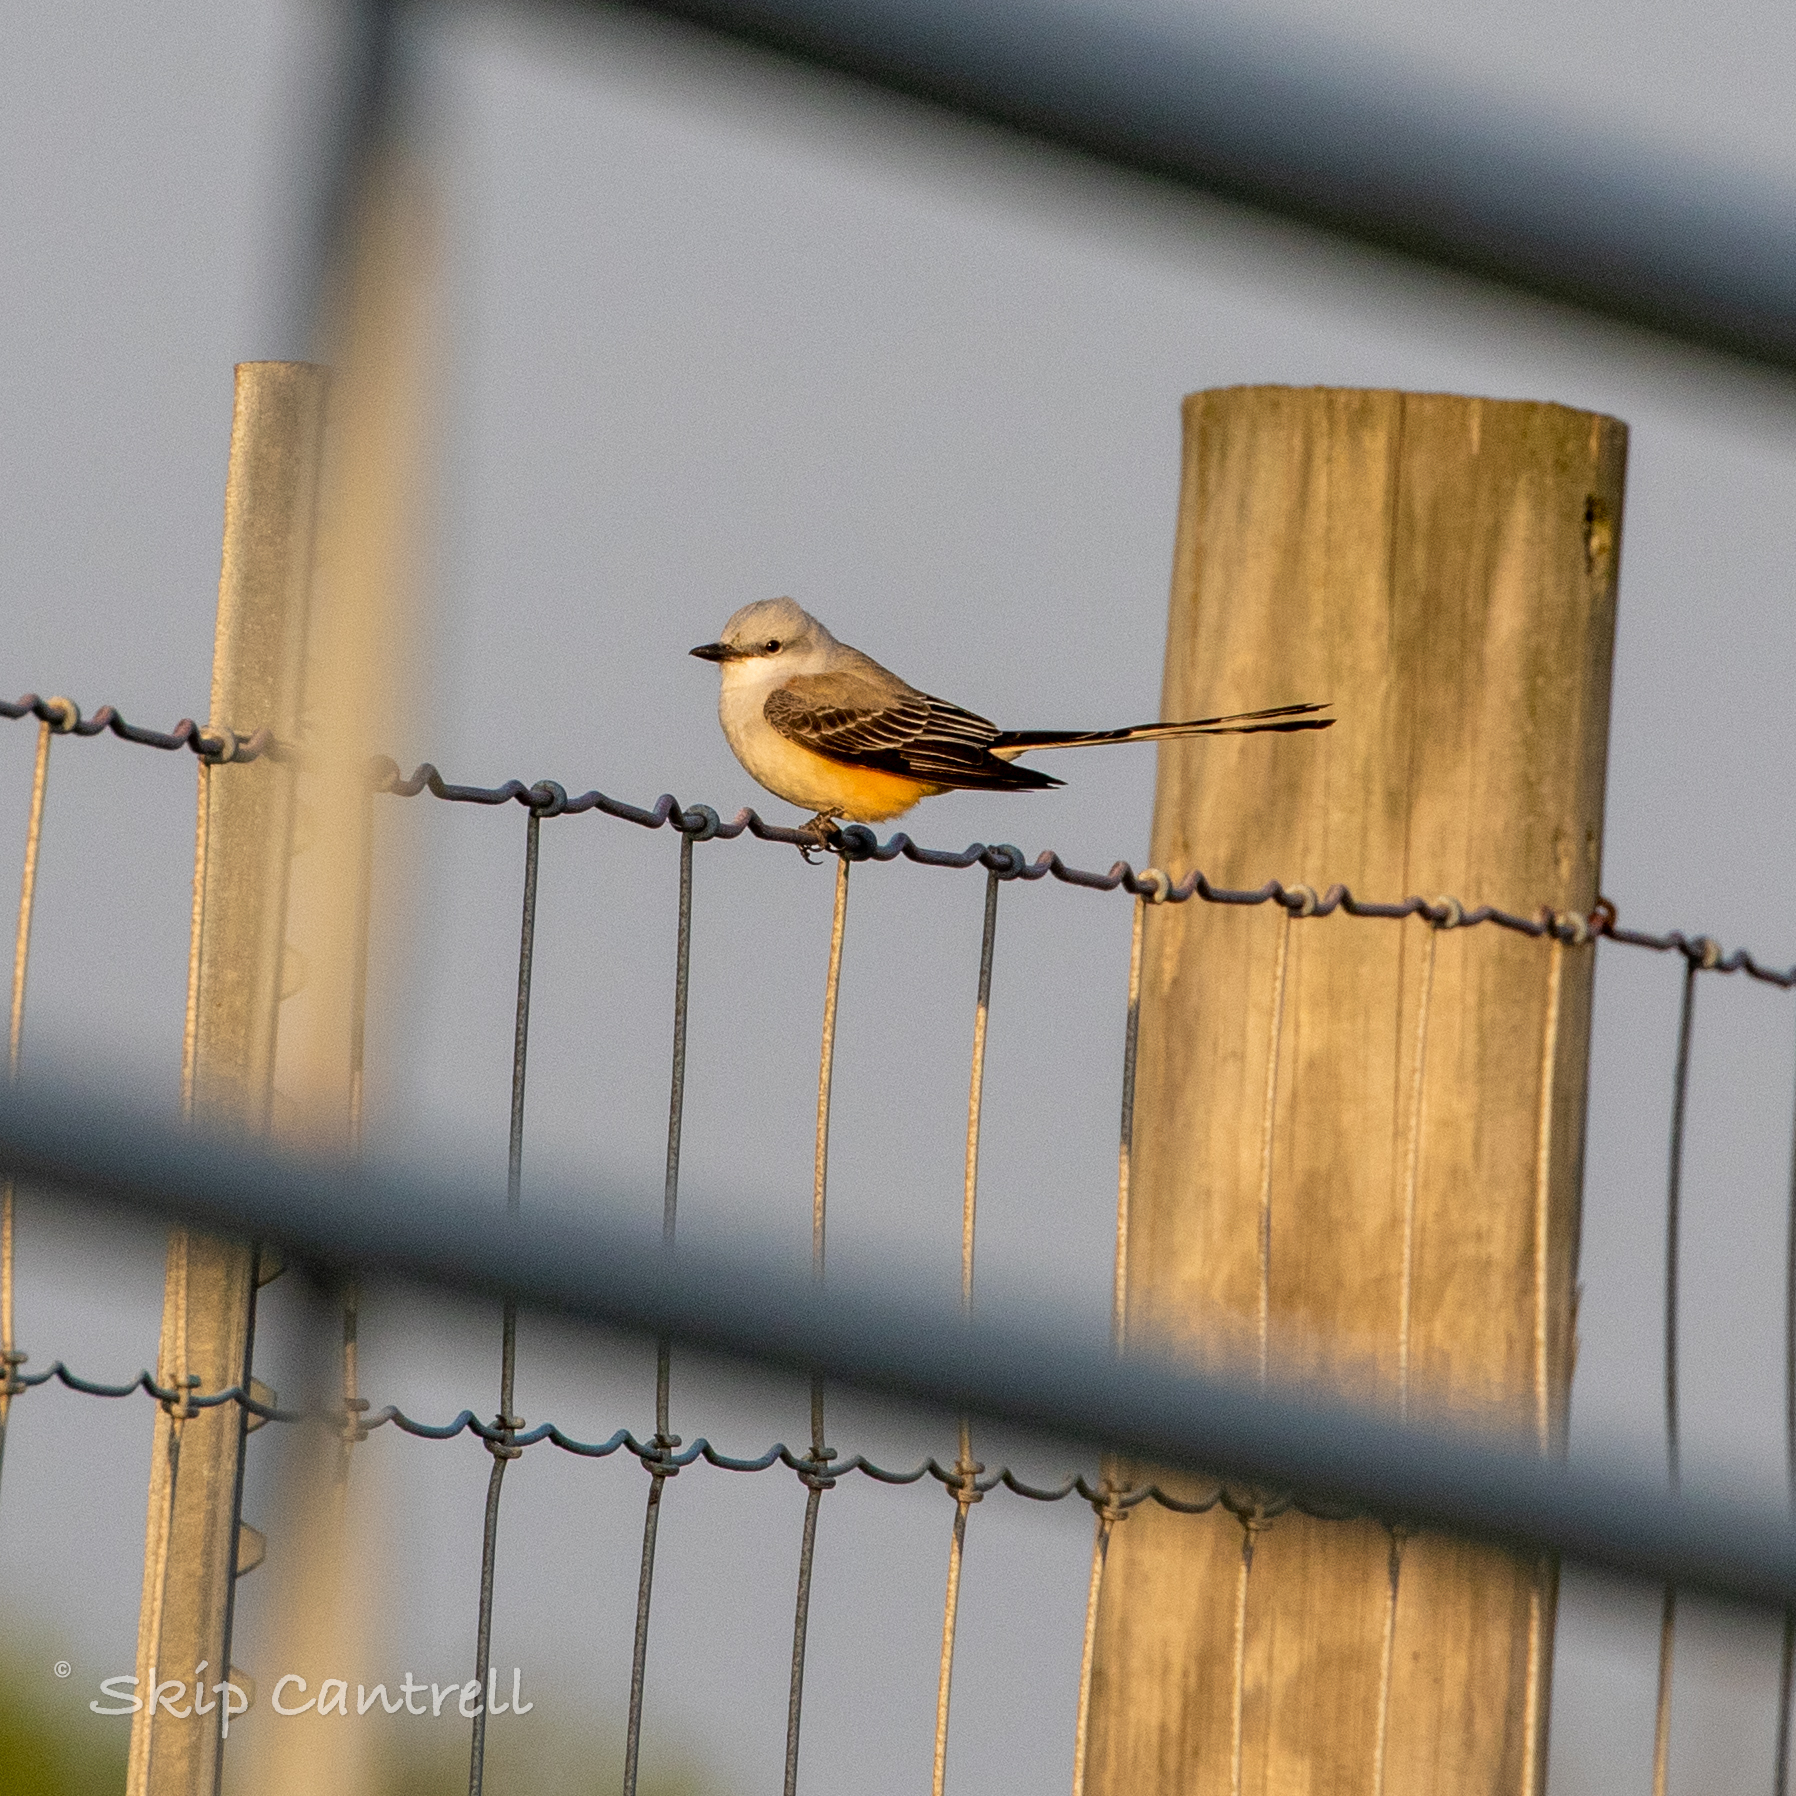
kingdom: Animalia
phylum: Chordata
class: Aves
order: Passeriformes
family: Tyrannidae
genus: Tyrannus
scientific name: Tyrannus forficatus
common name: Scissor-tailed flycatcher
